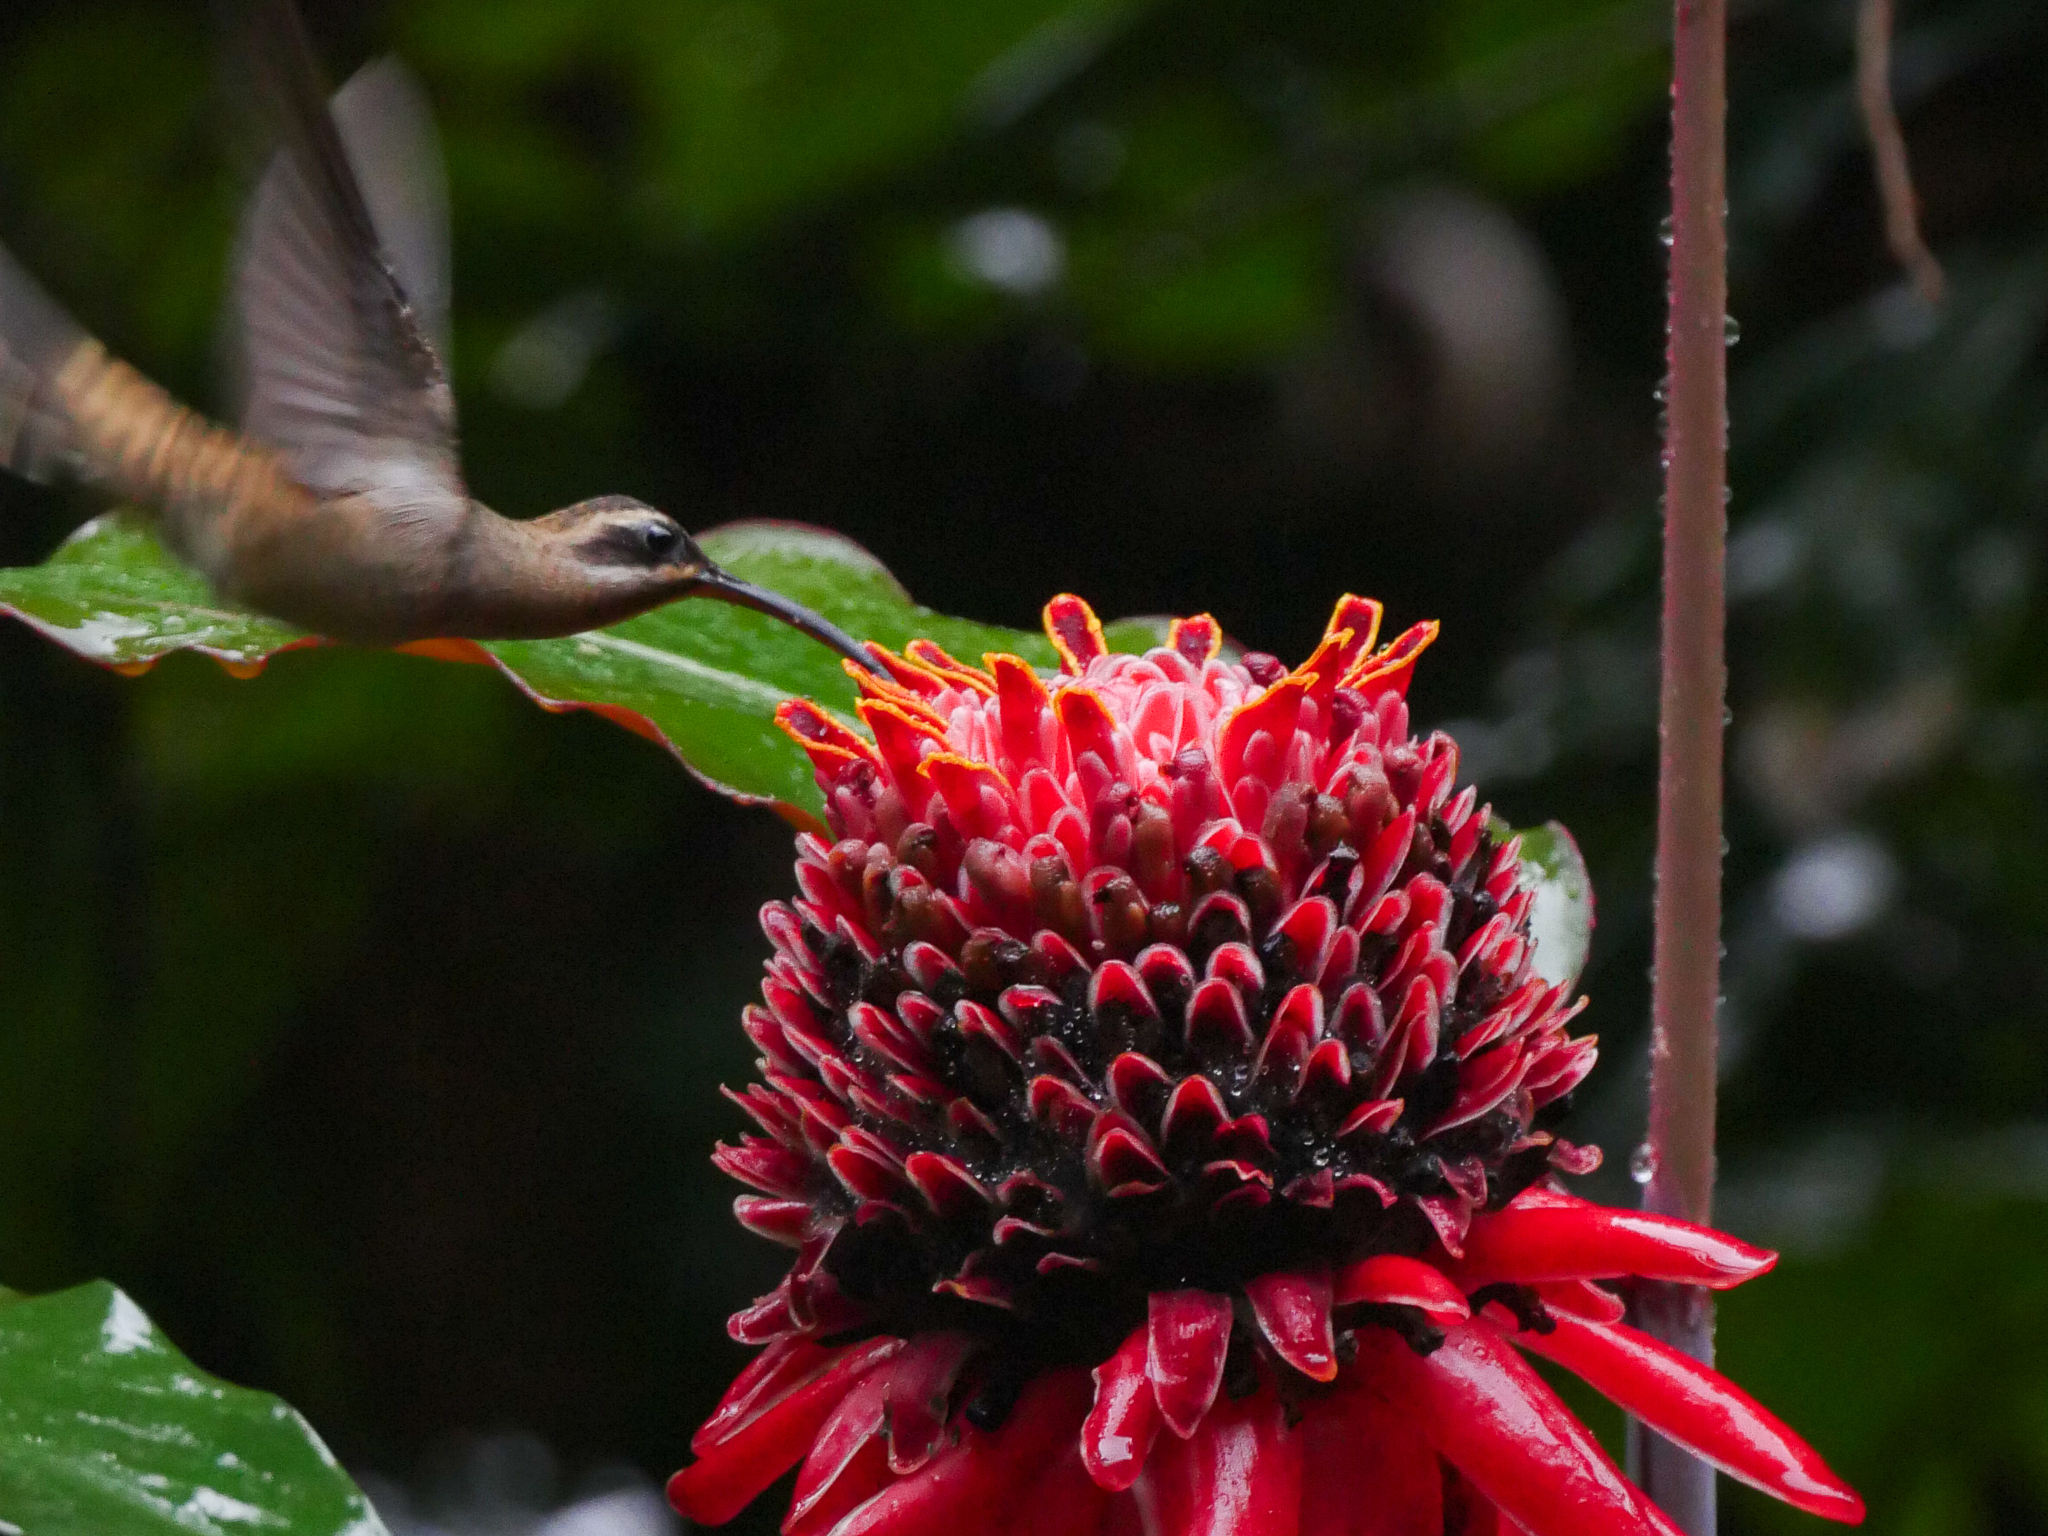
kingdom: Animalia
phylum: Chordata
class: Aves
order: Apodiformes
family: Trochilidae
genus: Phaethornis
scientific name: Phaethornis longirostris
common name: Long-billed hermit
